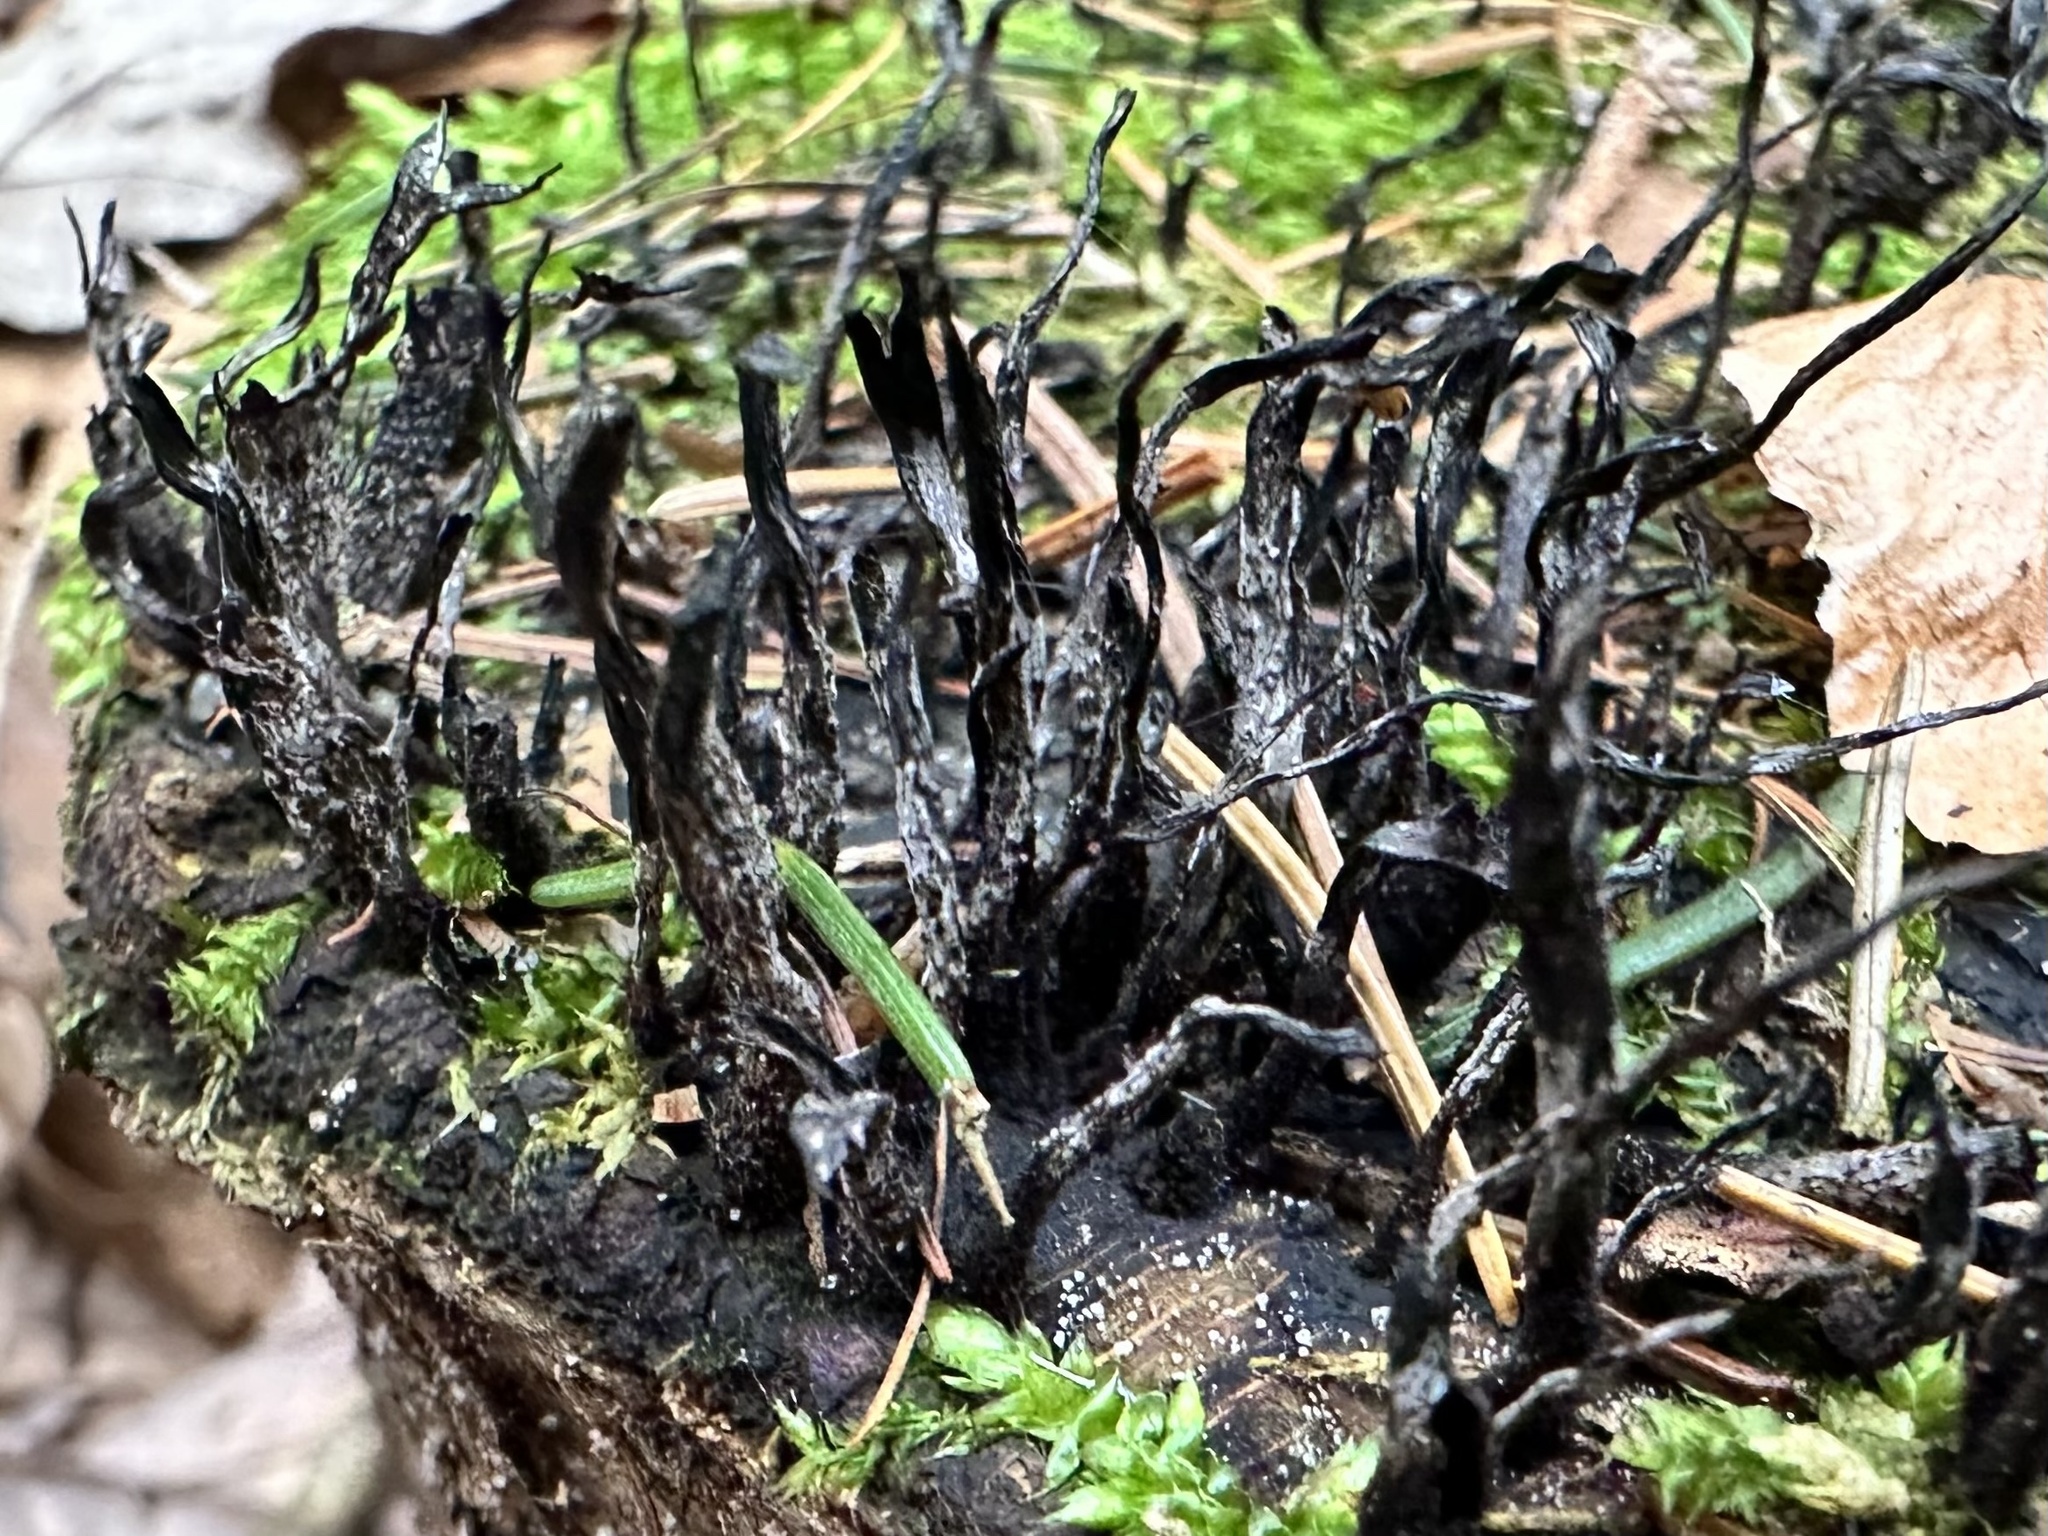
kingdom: Fungi
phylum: Ascomycota
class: Sordariomycetes
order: Xylariales
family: Xylariaceae
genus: Xylaria
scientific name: Xylaria hypoxylon
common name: Candle-snuff fungus
